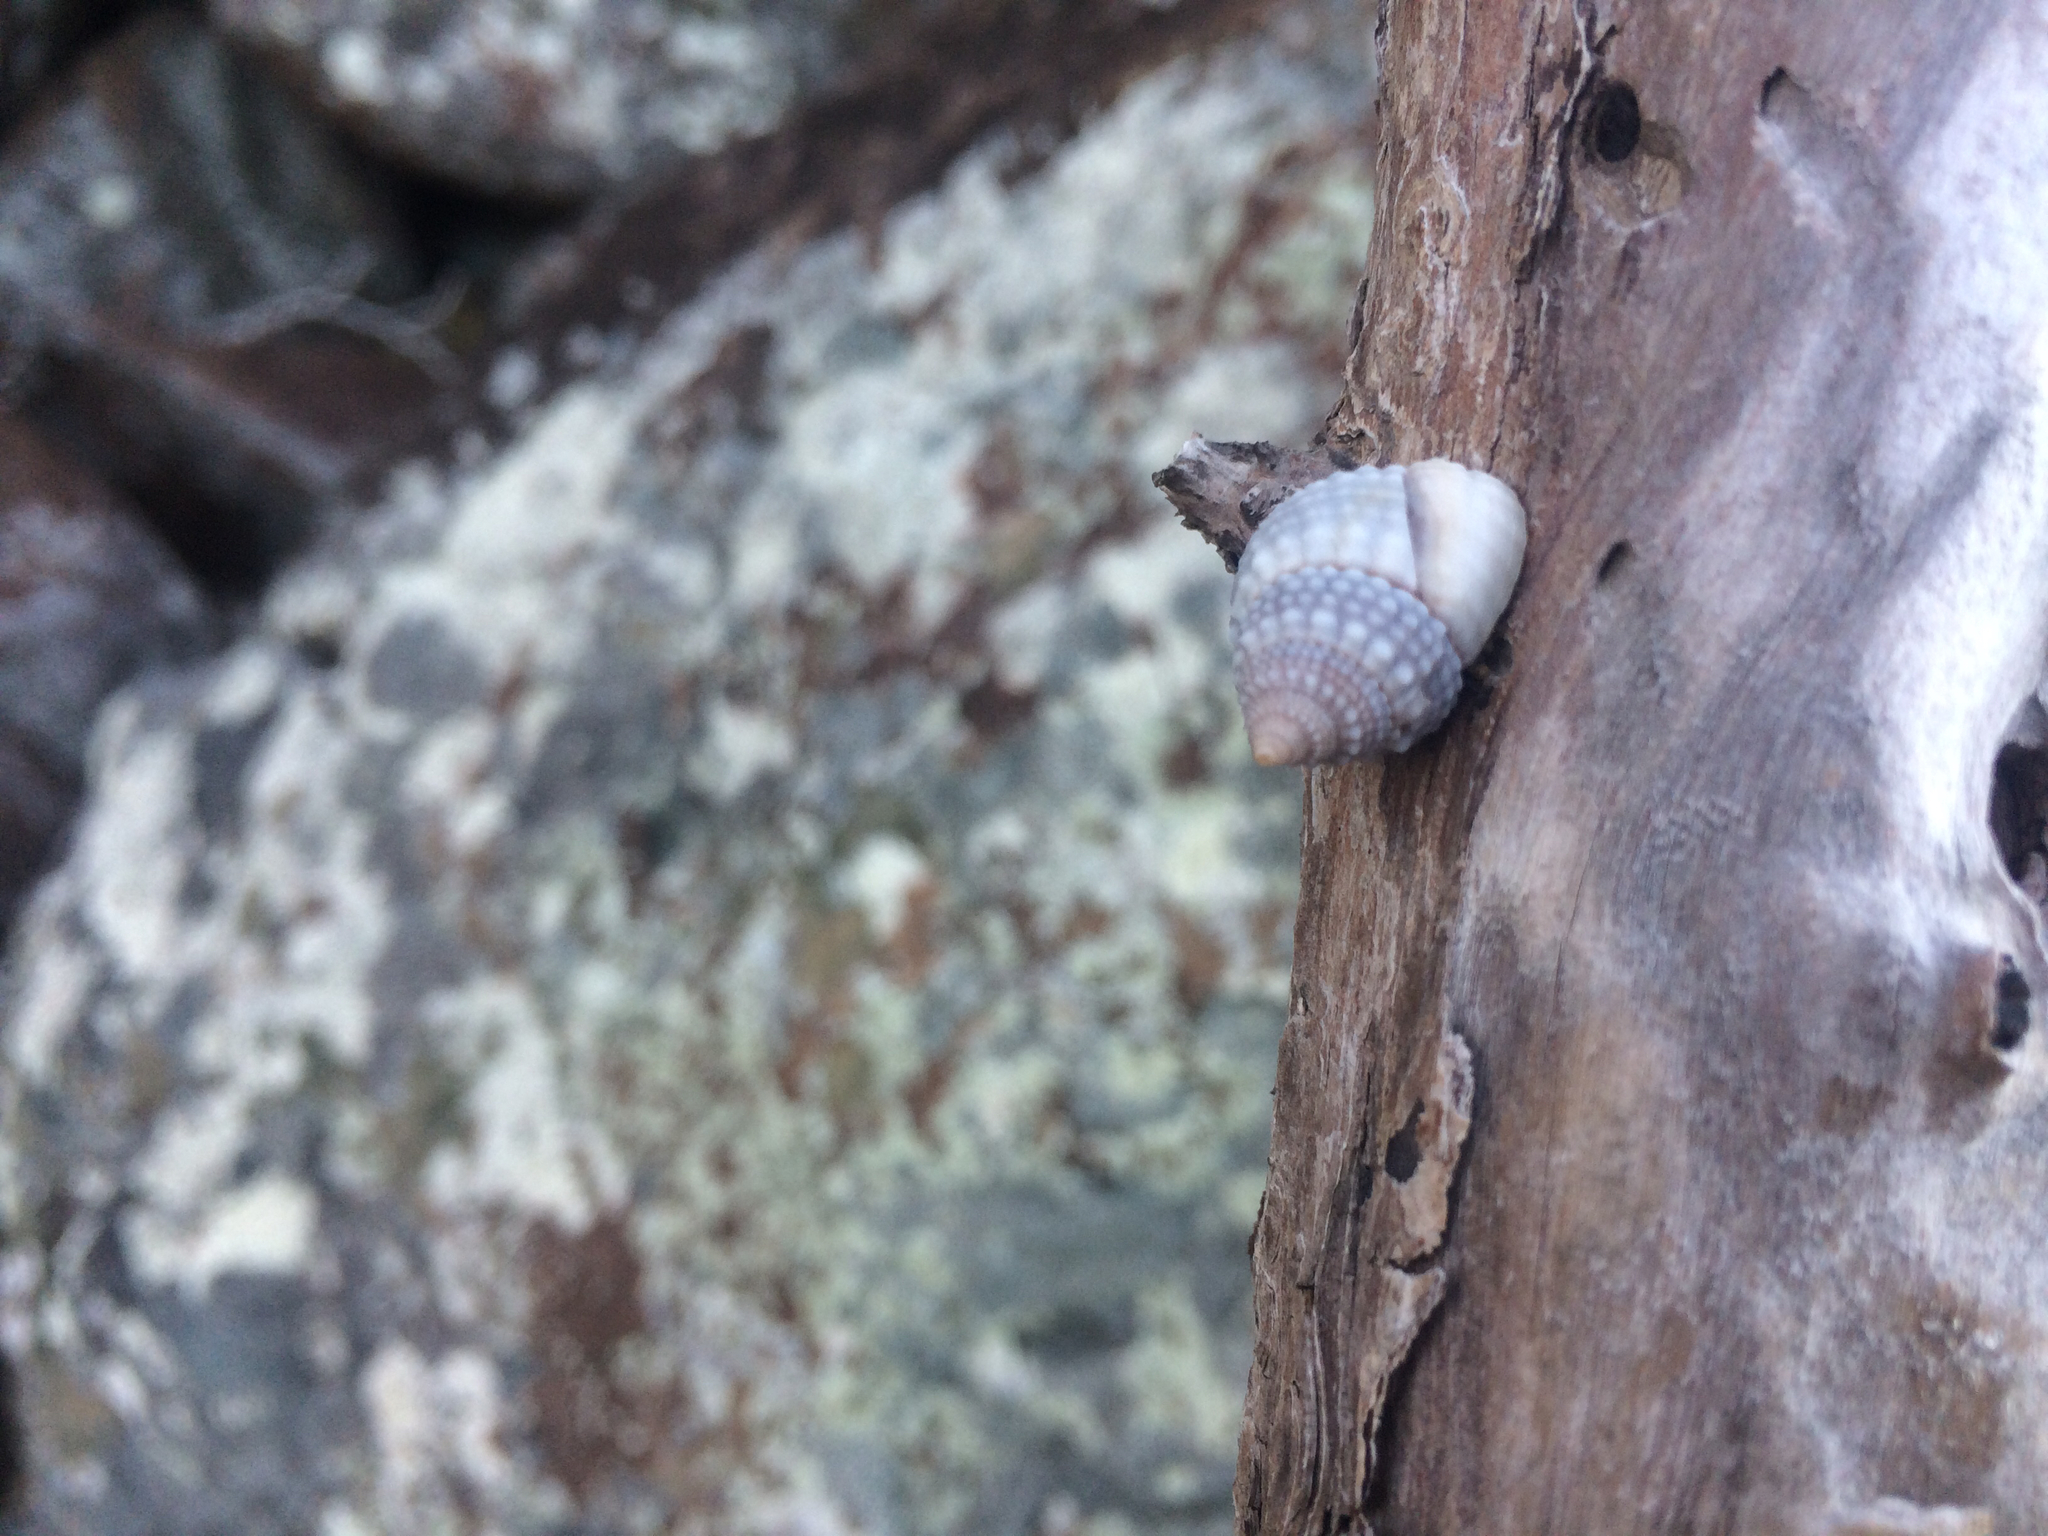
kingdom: Animalia
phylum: Mollusca
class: Gastropoda
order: Littorinimorpha
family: Littorinidae
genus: Cenchritis
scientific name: Cenchritis muricatus
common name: Beaded periwinkle
